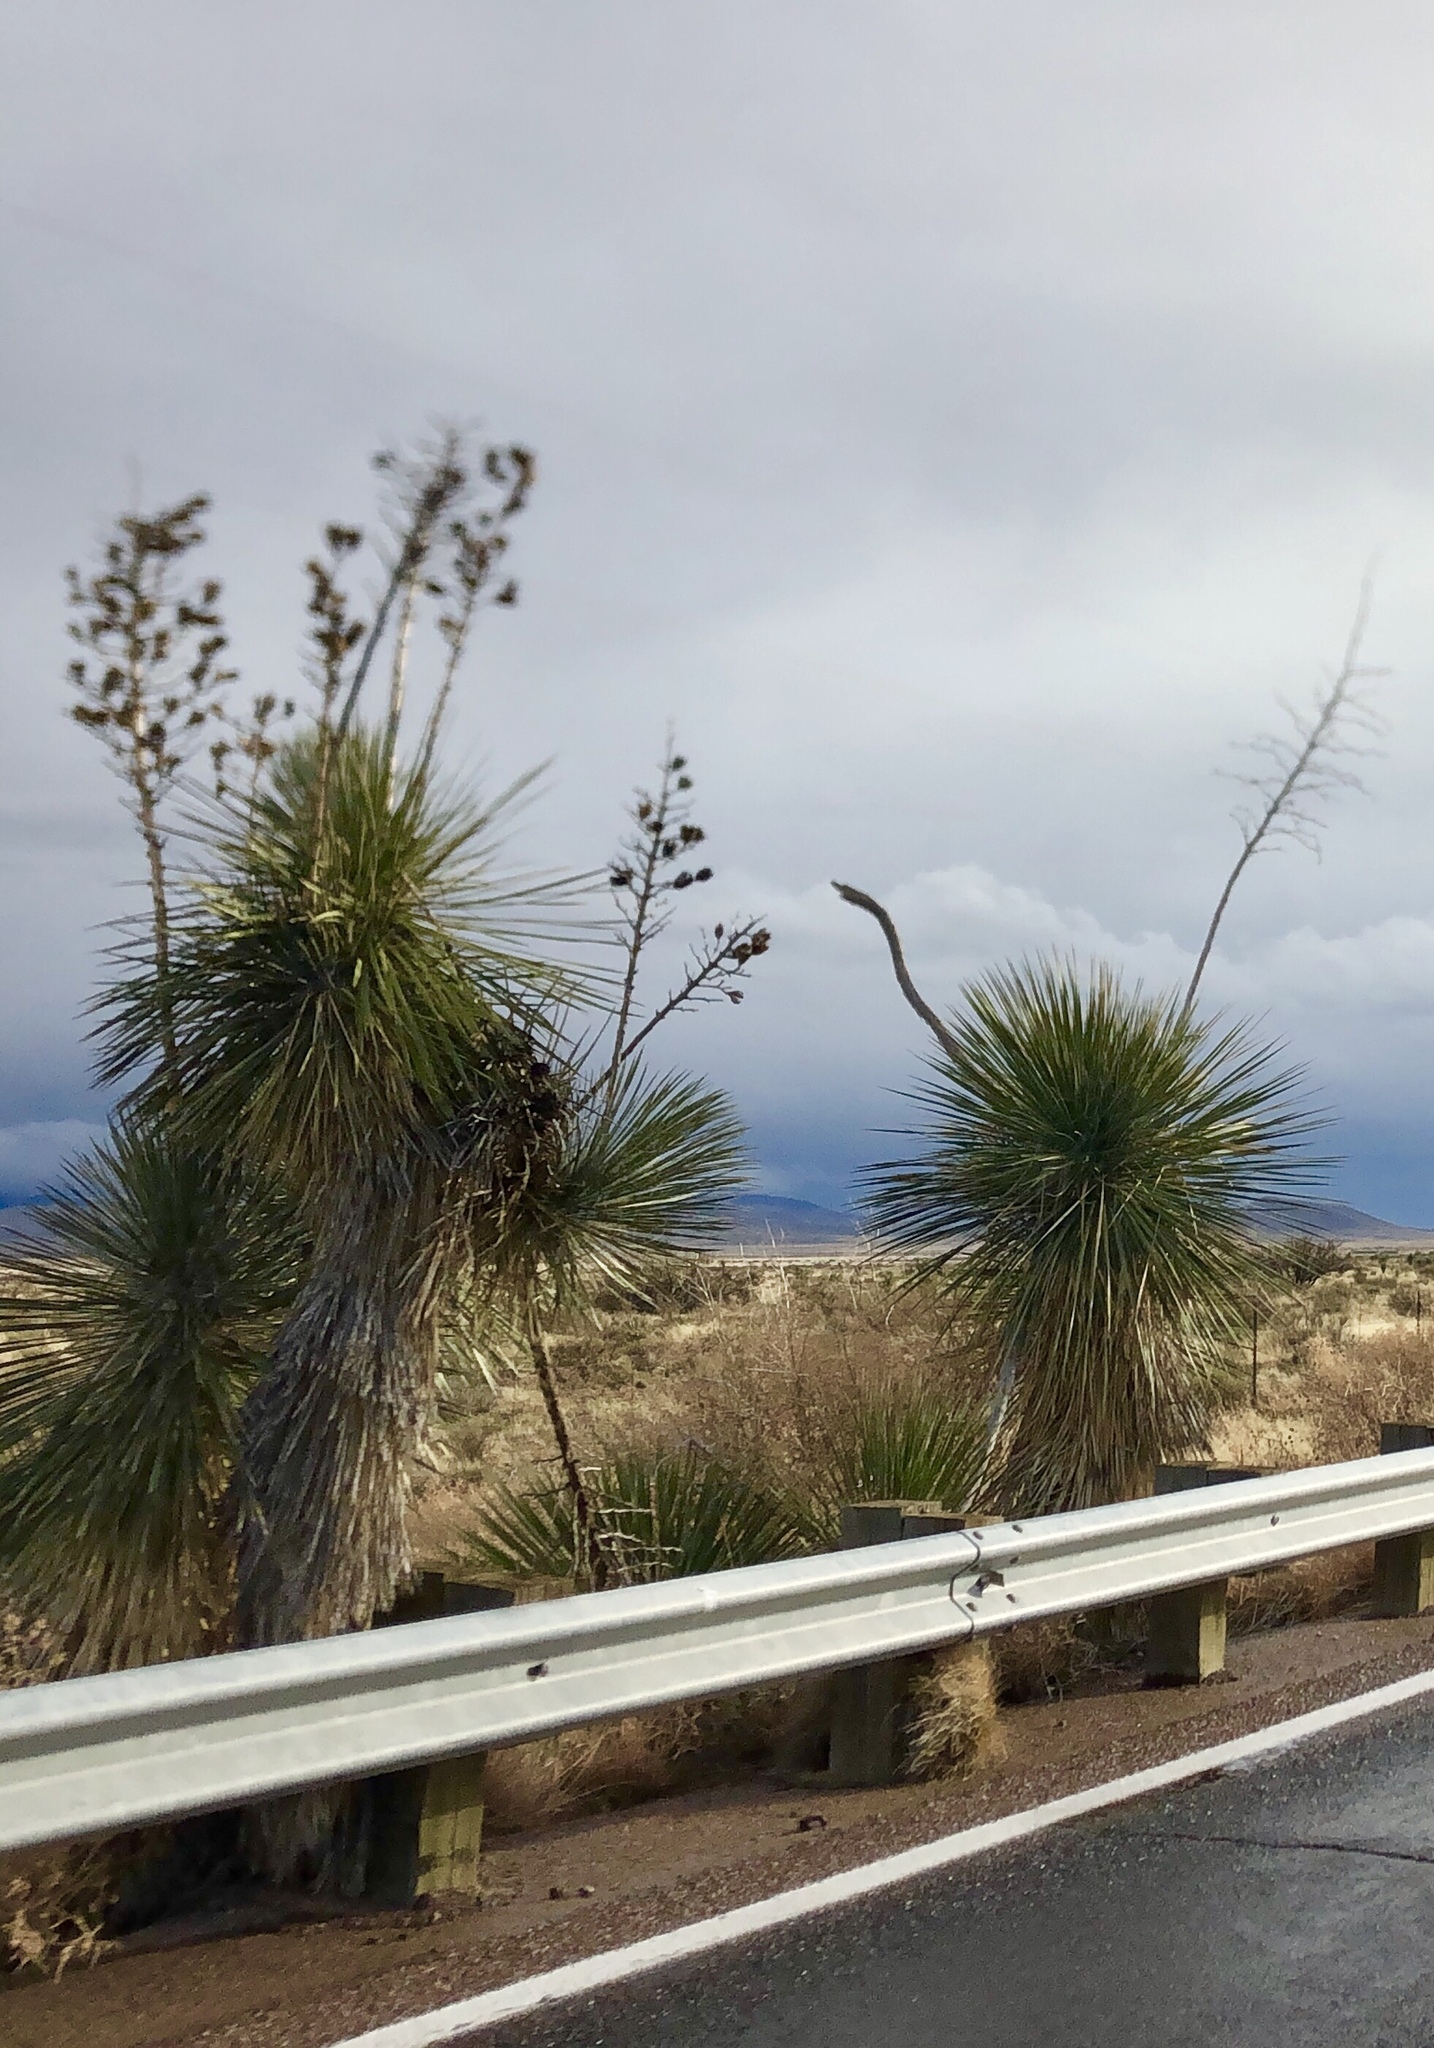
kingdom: Plantae
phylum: Tracheophyta
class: Liliopsida
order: Asparagales
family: Asparagaceae
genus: Yucca
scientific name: Yucca elata
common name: Palmella
